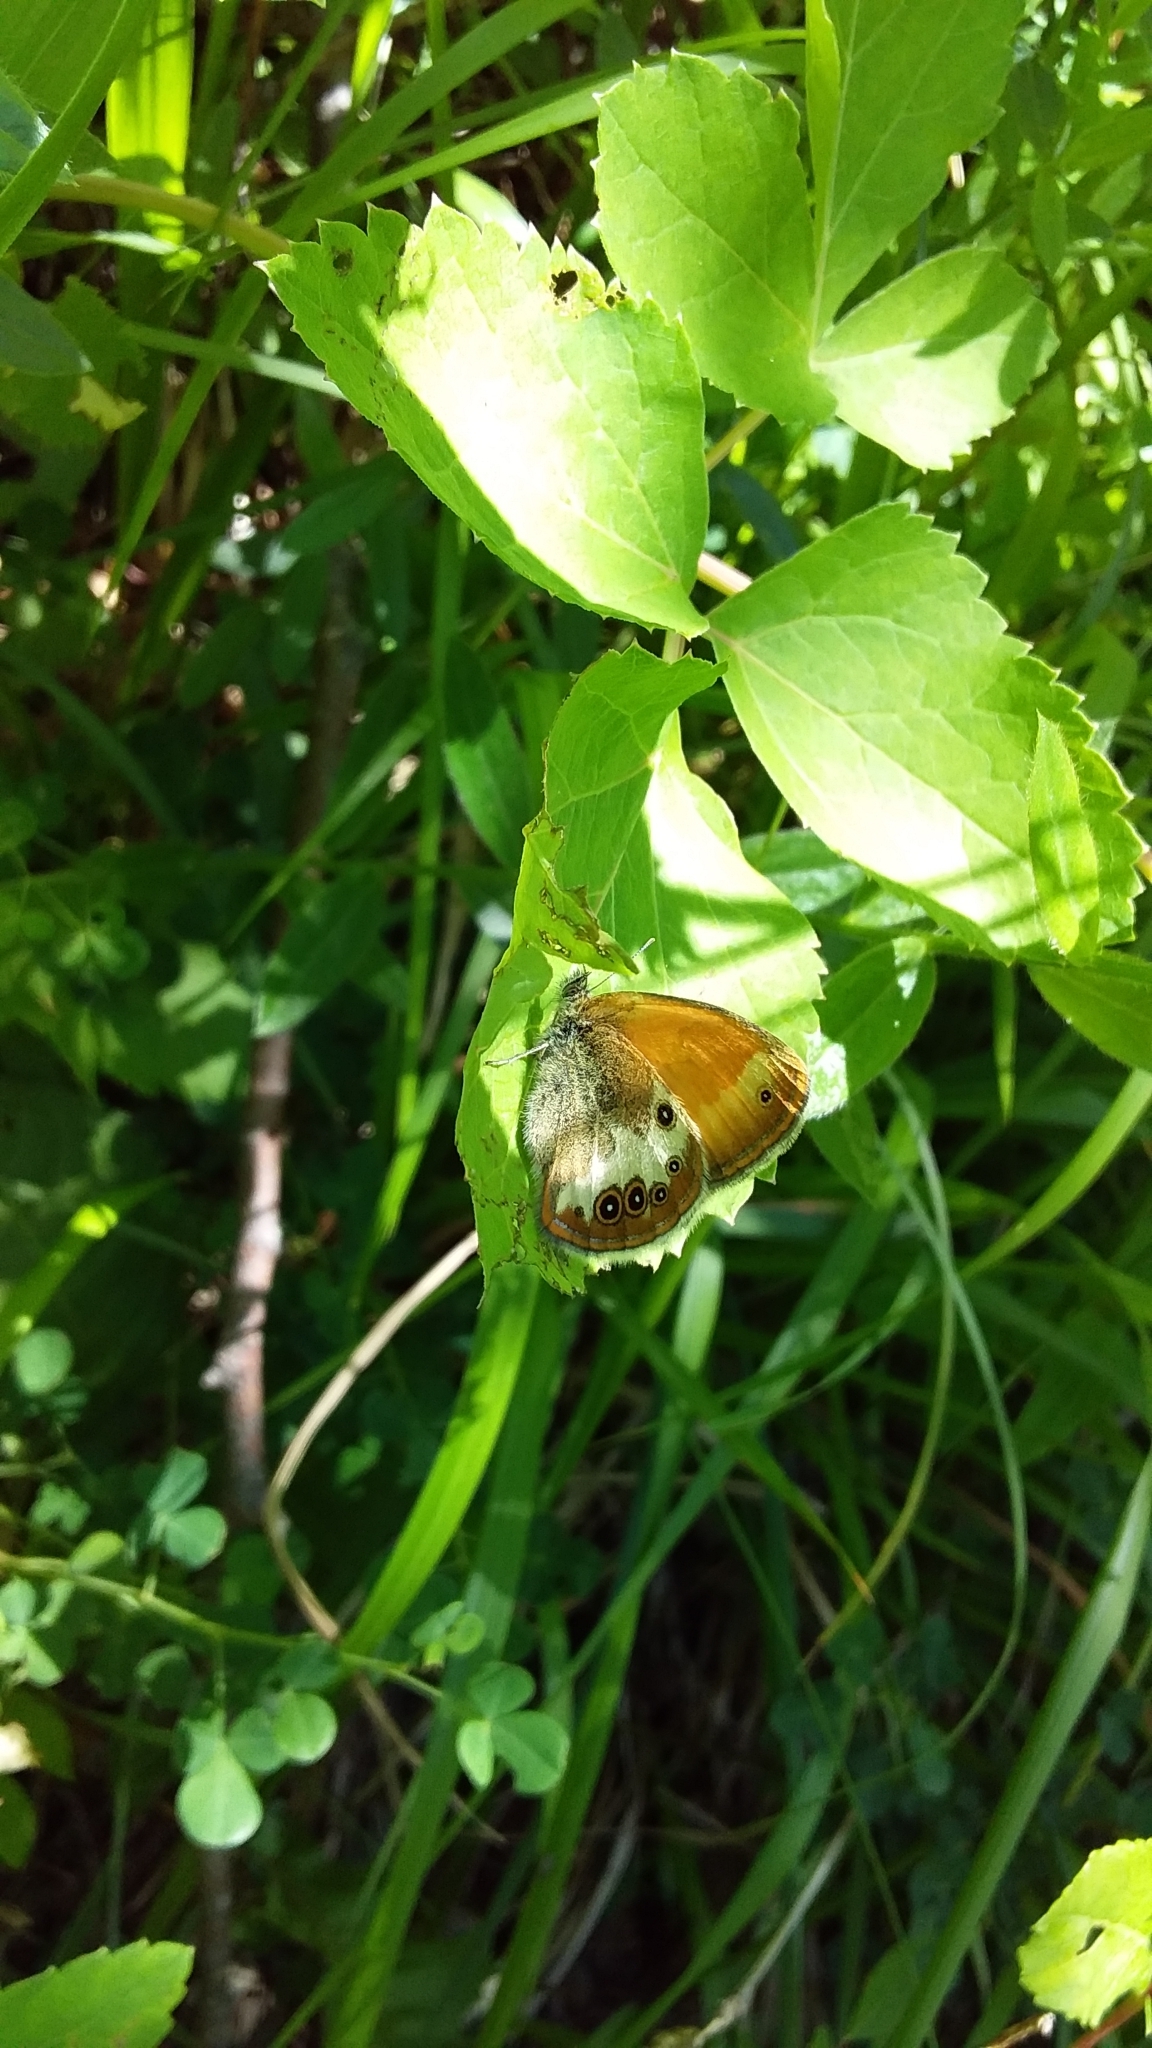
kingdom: Animalia
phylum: Arthropoda
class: Insecta
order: Lepidoptera
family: Nymphalidae
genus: Coenonympha
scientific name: Coenonympha arcania
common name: Pearly heath
